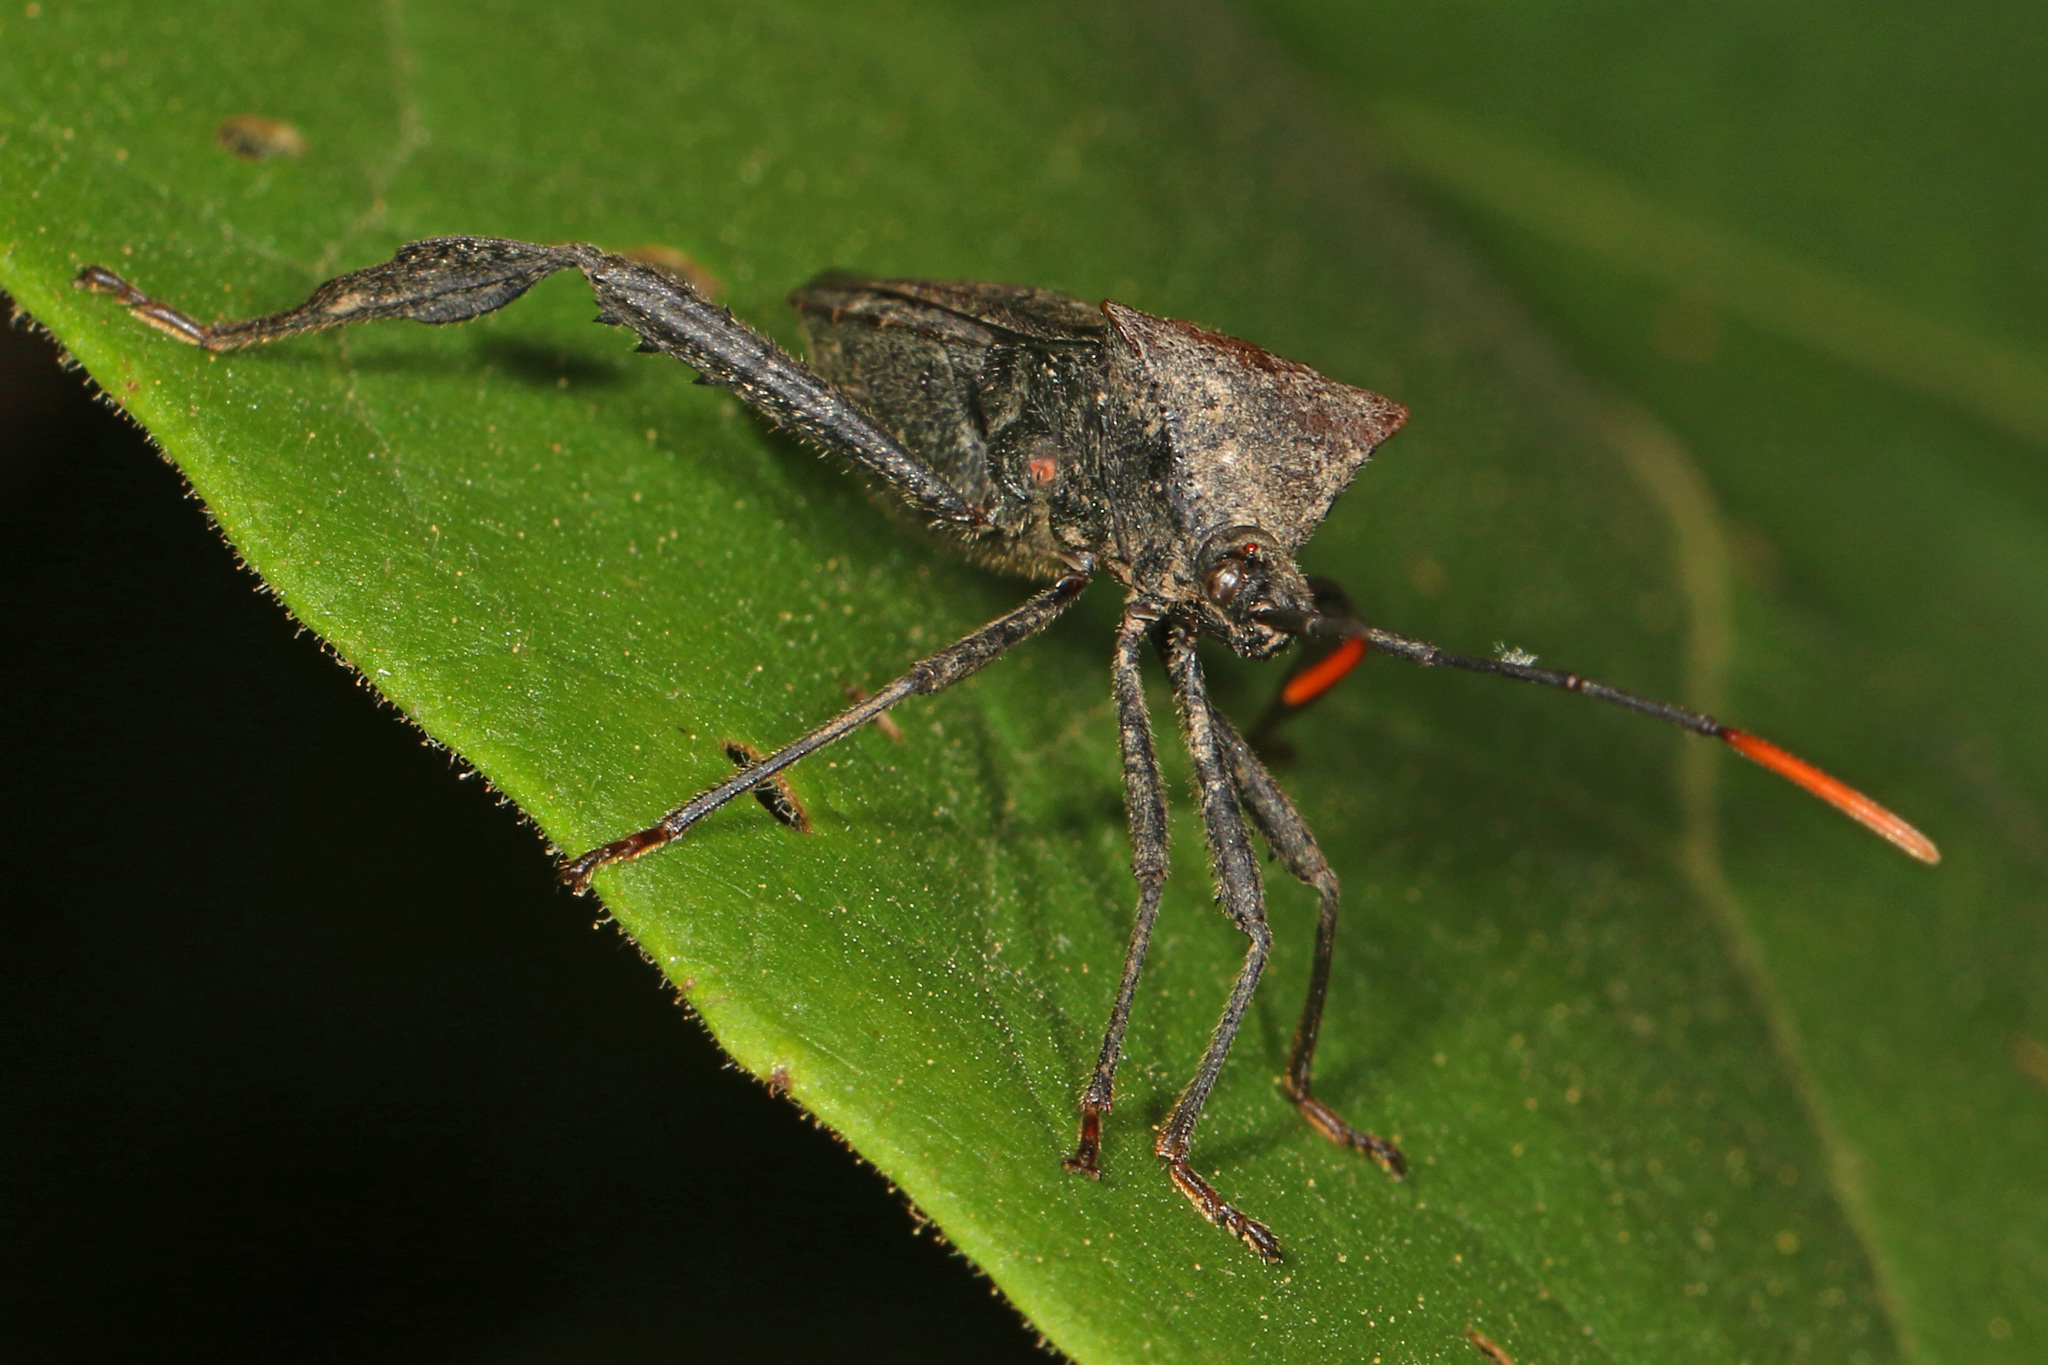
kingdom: Animalia
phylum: Arthropoda
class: Insecta
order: Hemiptera
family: Coreidae
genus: Acanthocephala
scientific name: Acanthocephala terminalis
